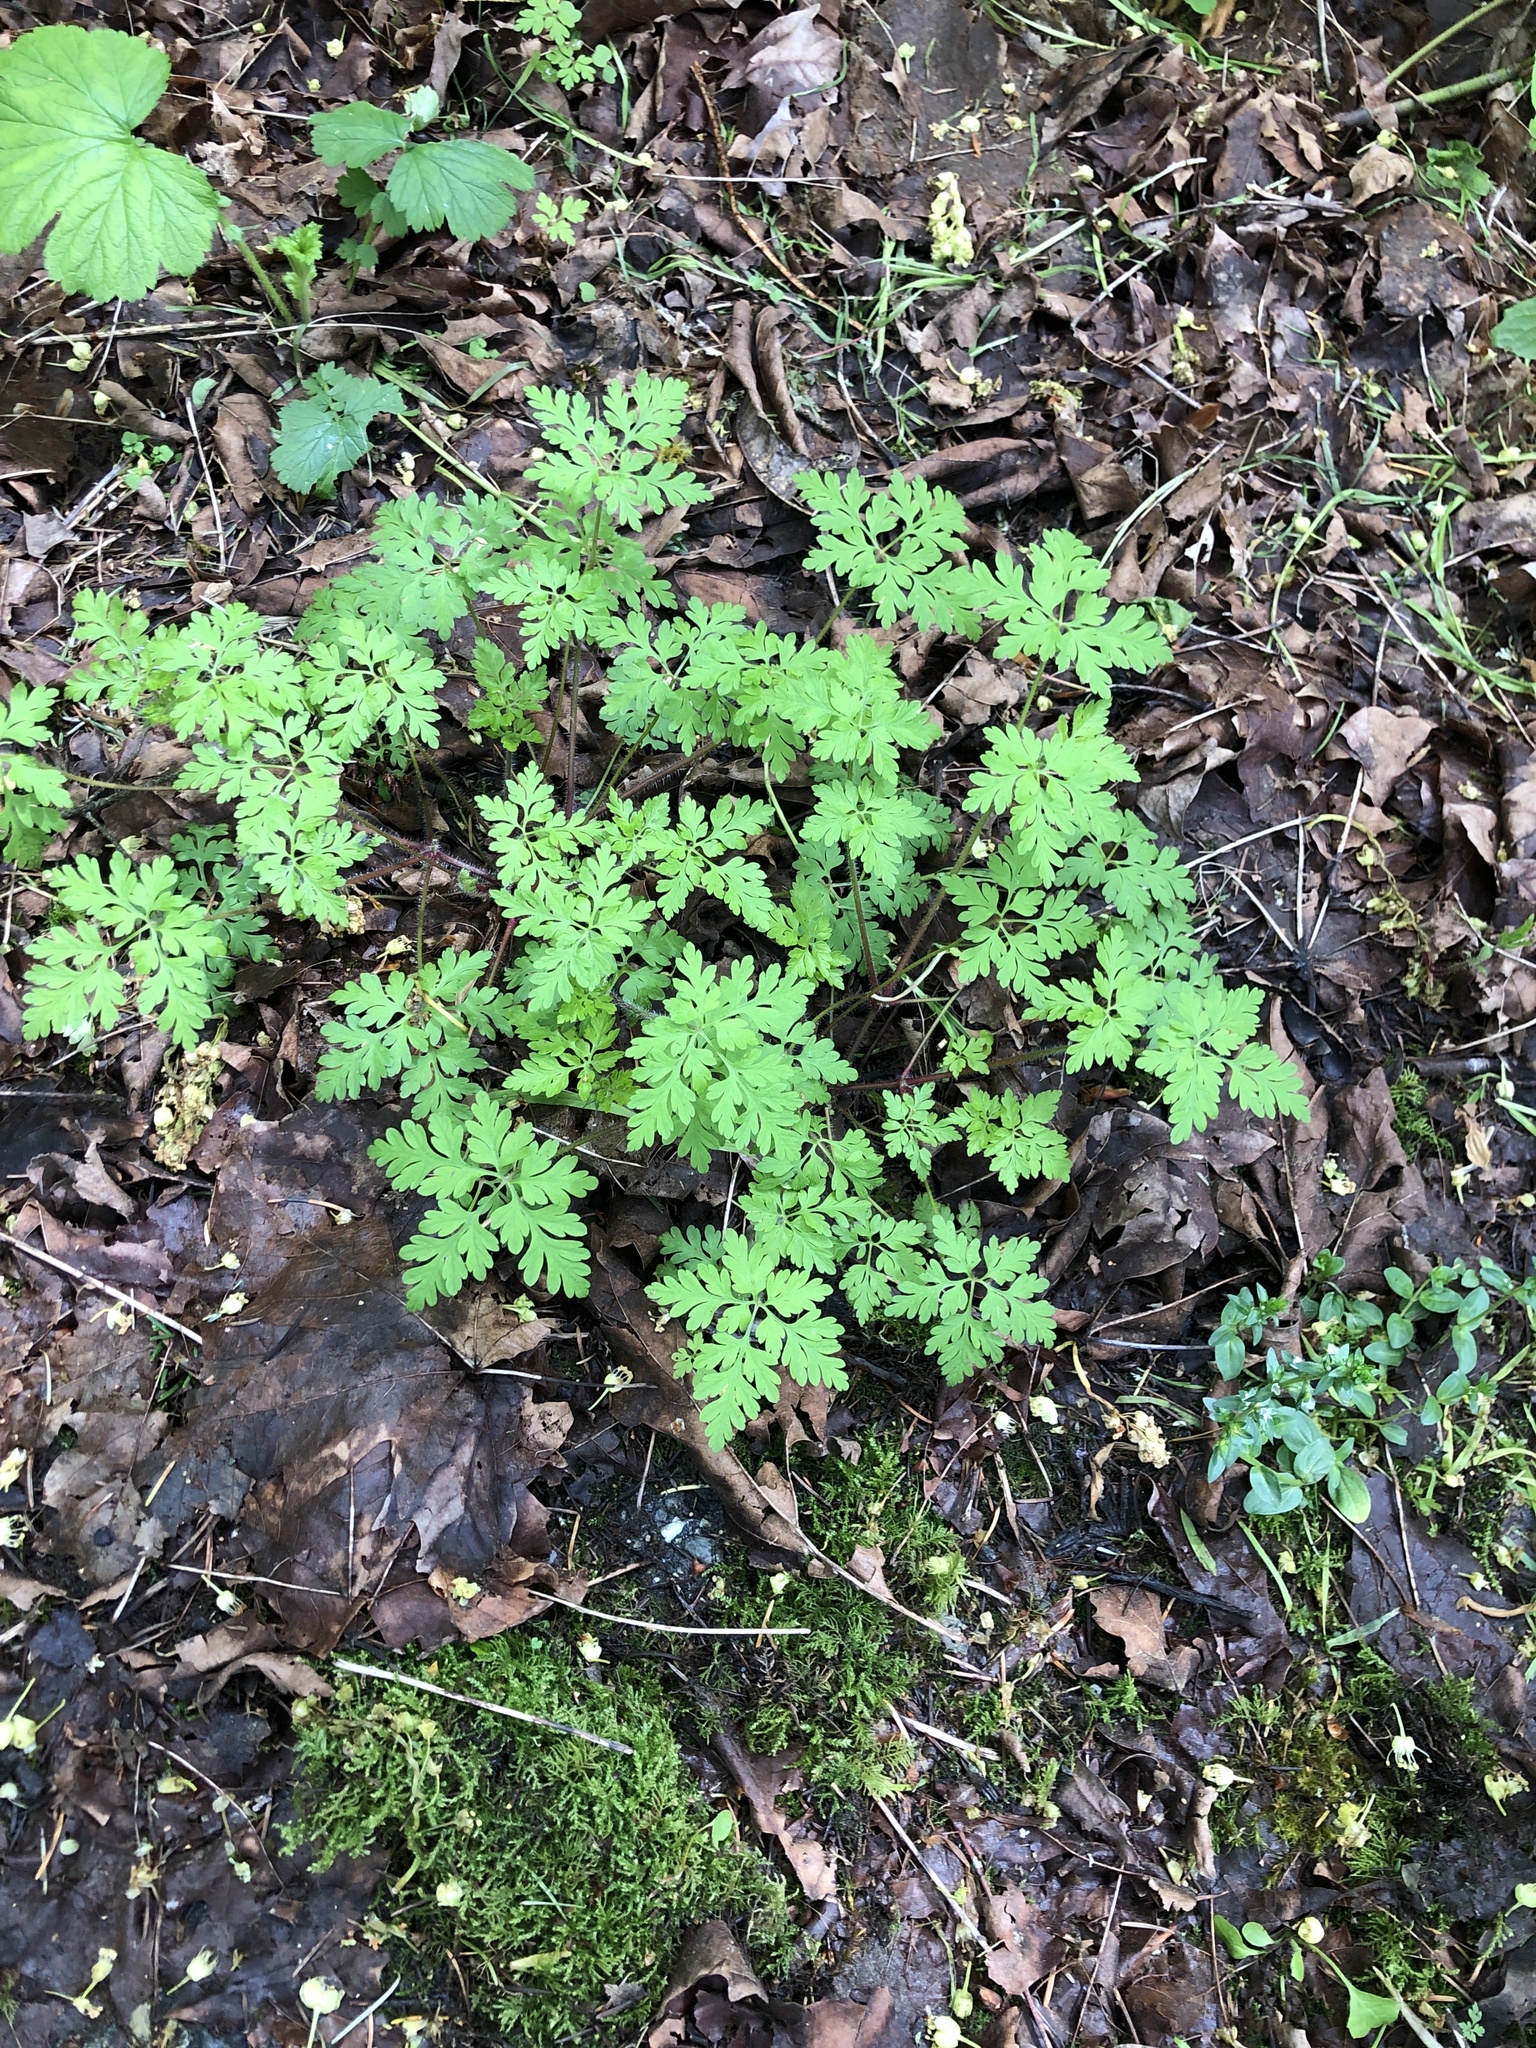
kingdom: Plantae
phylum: Tracheophyta
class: Magnoliopsida
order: Geraniales
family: Geraniaceae
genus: Geranium
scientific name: Geranium robertianum
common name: Herb-robert
